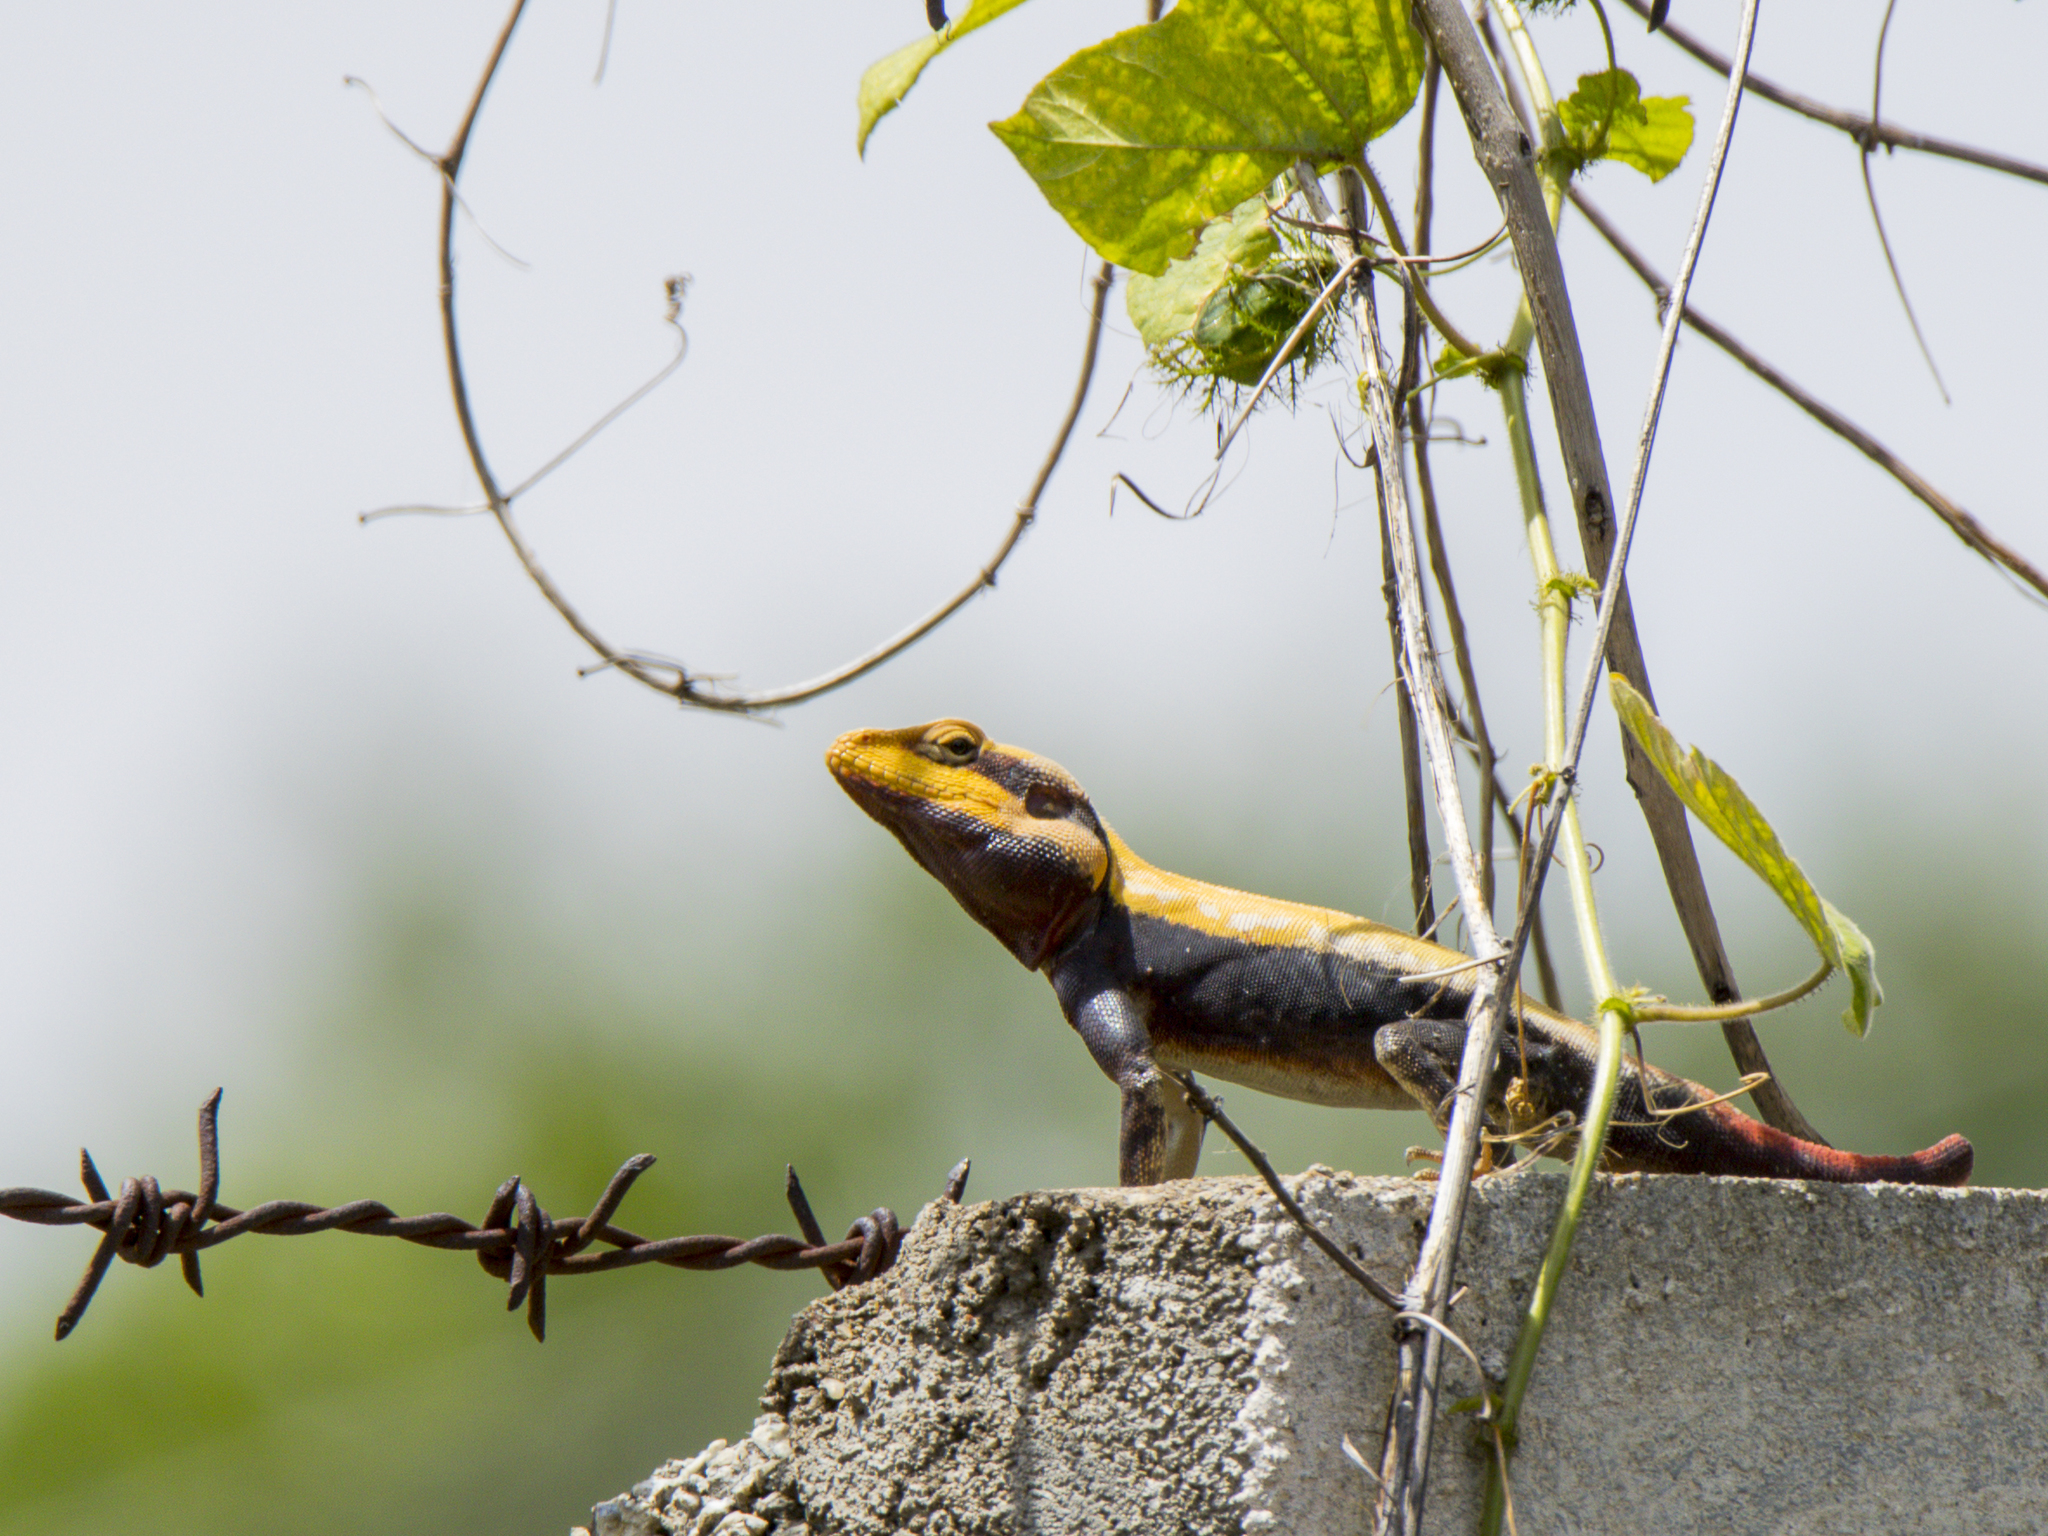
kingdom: Animalia
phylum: Chordata
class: Squamata
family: Agamidae
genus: Psammophilus
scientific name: Psammophilus dorsalis
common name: South indian rock agama
